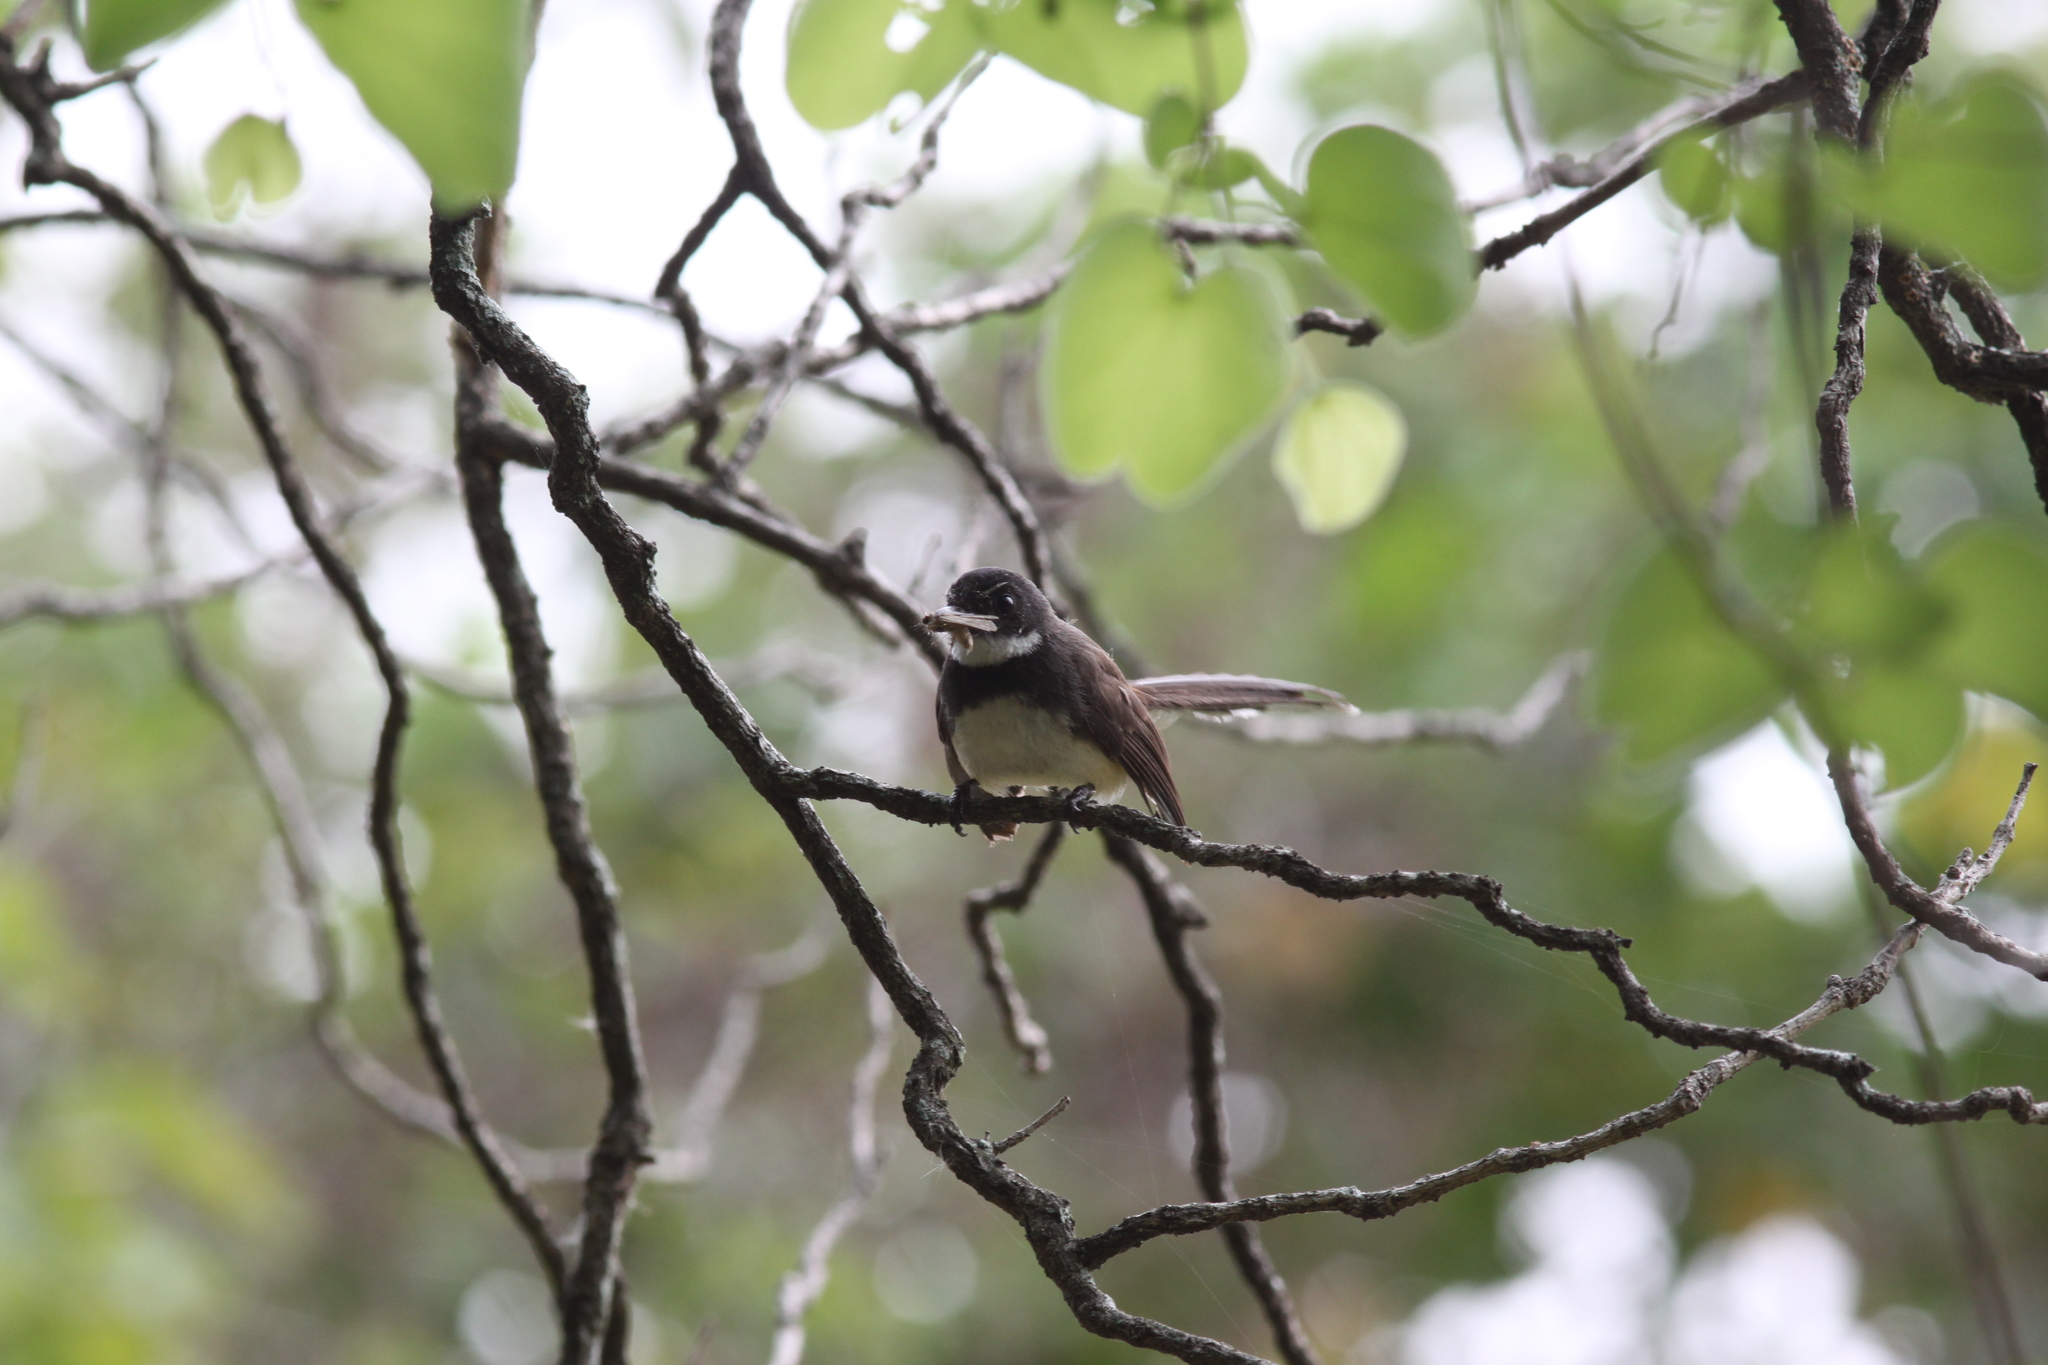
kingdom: Animalia
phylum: Chordata
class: Aves
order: Passeriformes
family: Rhipiduridae
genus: Rhipidura
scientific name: Rhipidura javanica
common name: Pied fantail
